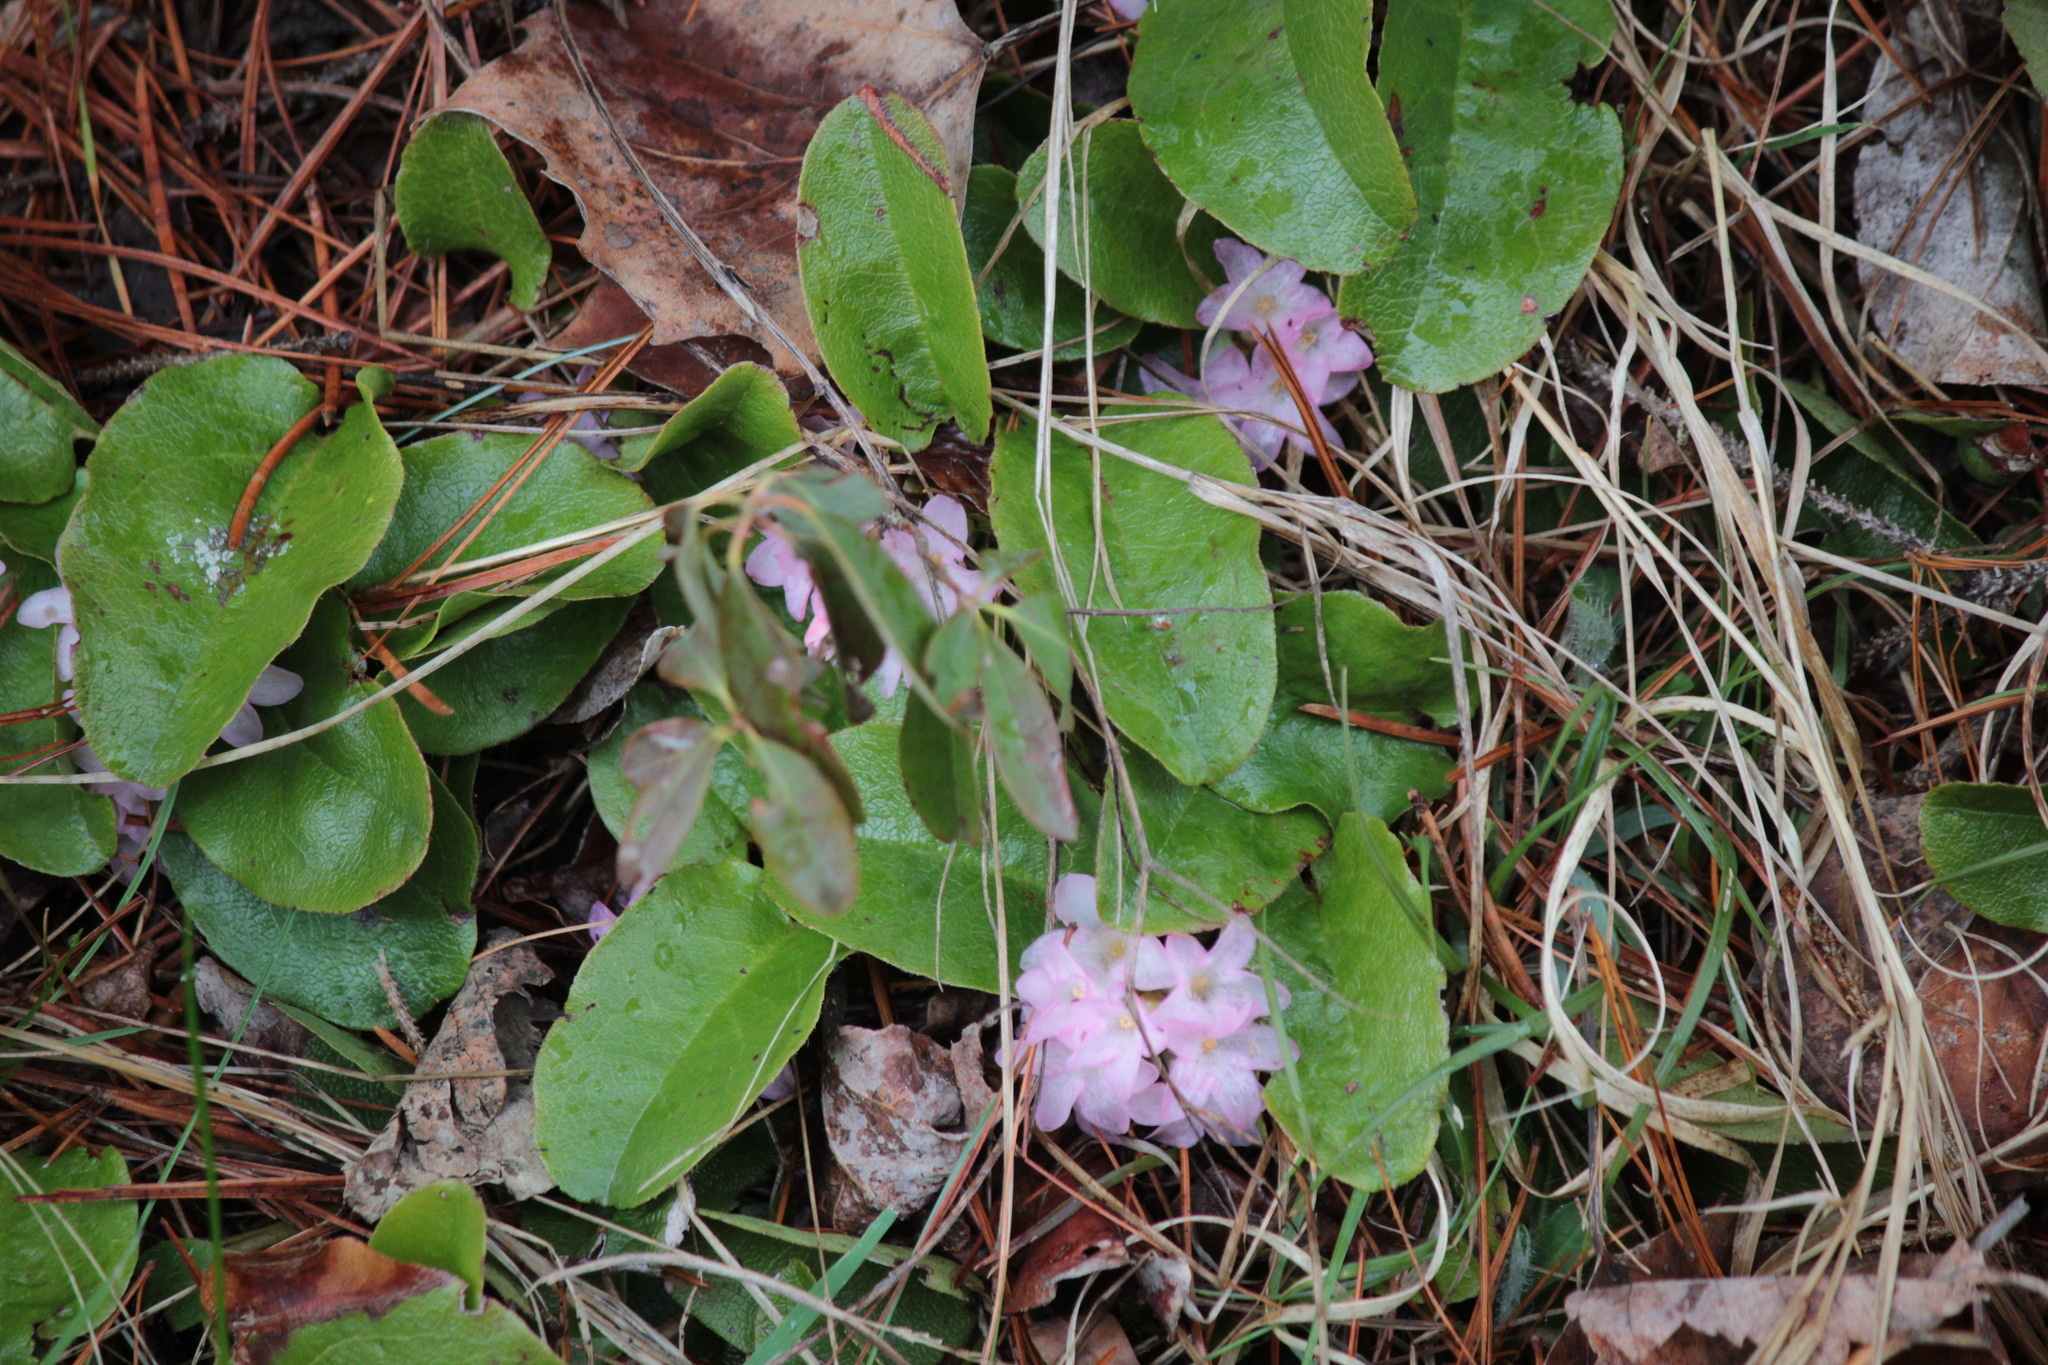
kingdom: Plantae
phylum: Tracheophyta
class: Magnoliopsida
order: Ericales
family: Ericaceae
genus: Epigaea
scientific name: Epigaea repens
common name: Gravelroot
